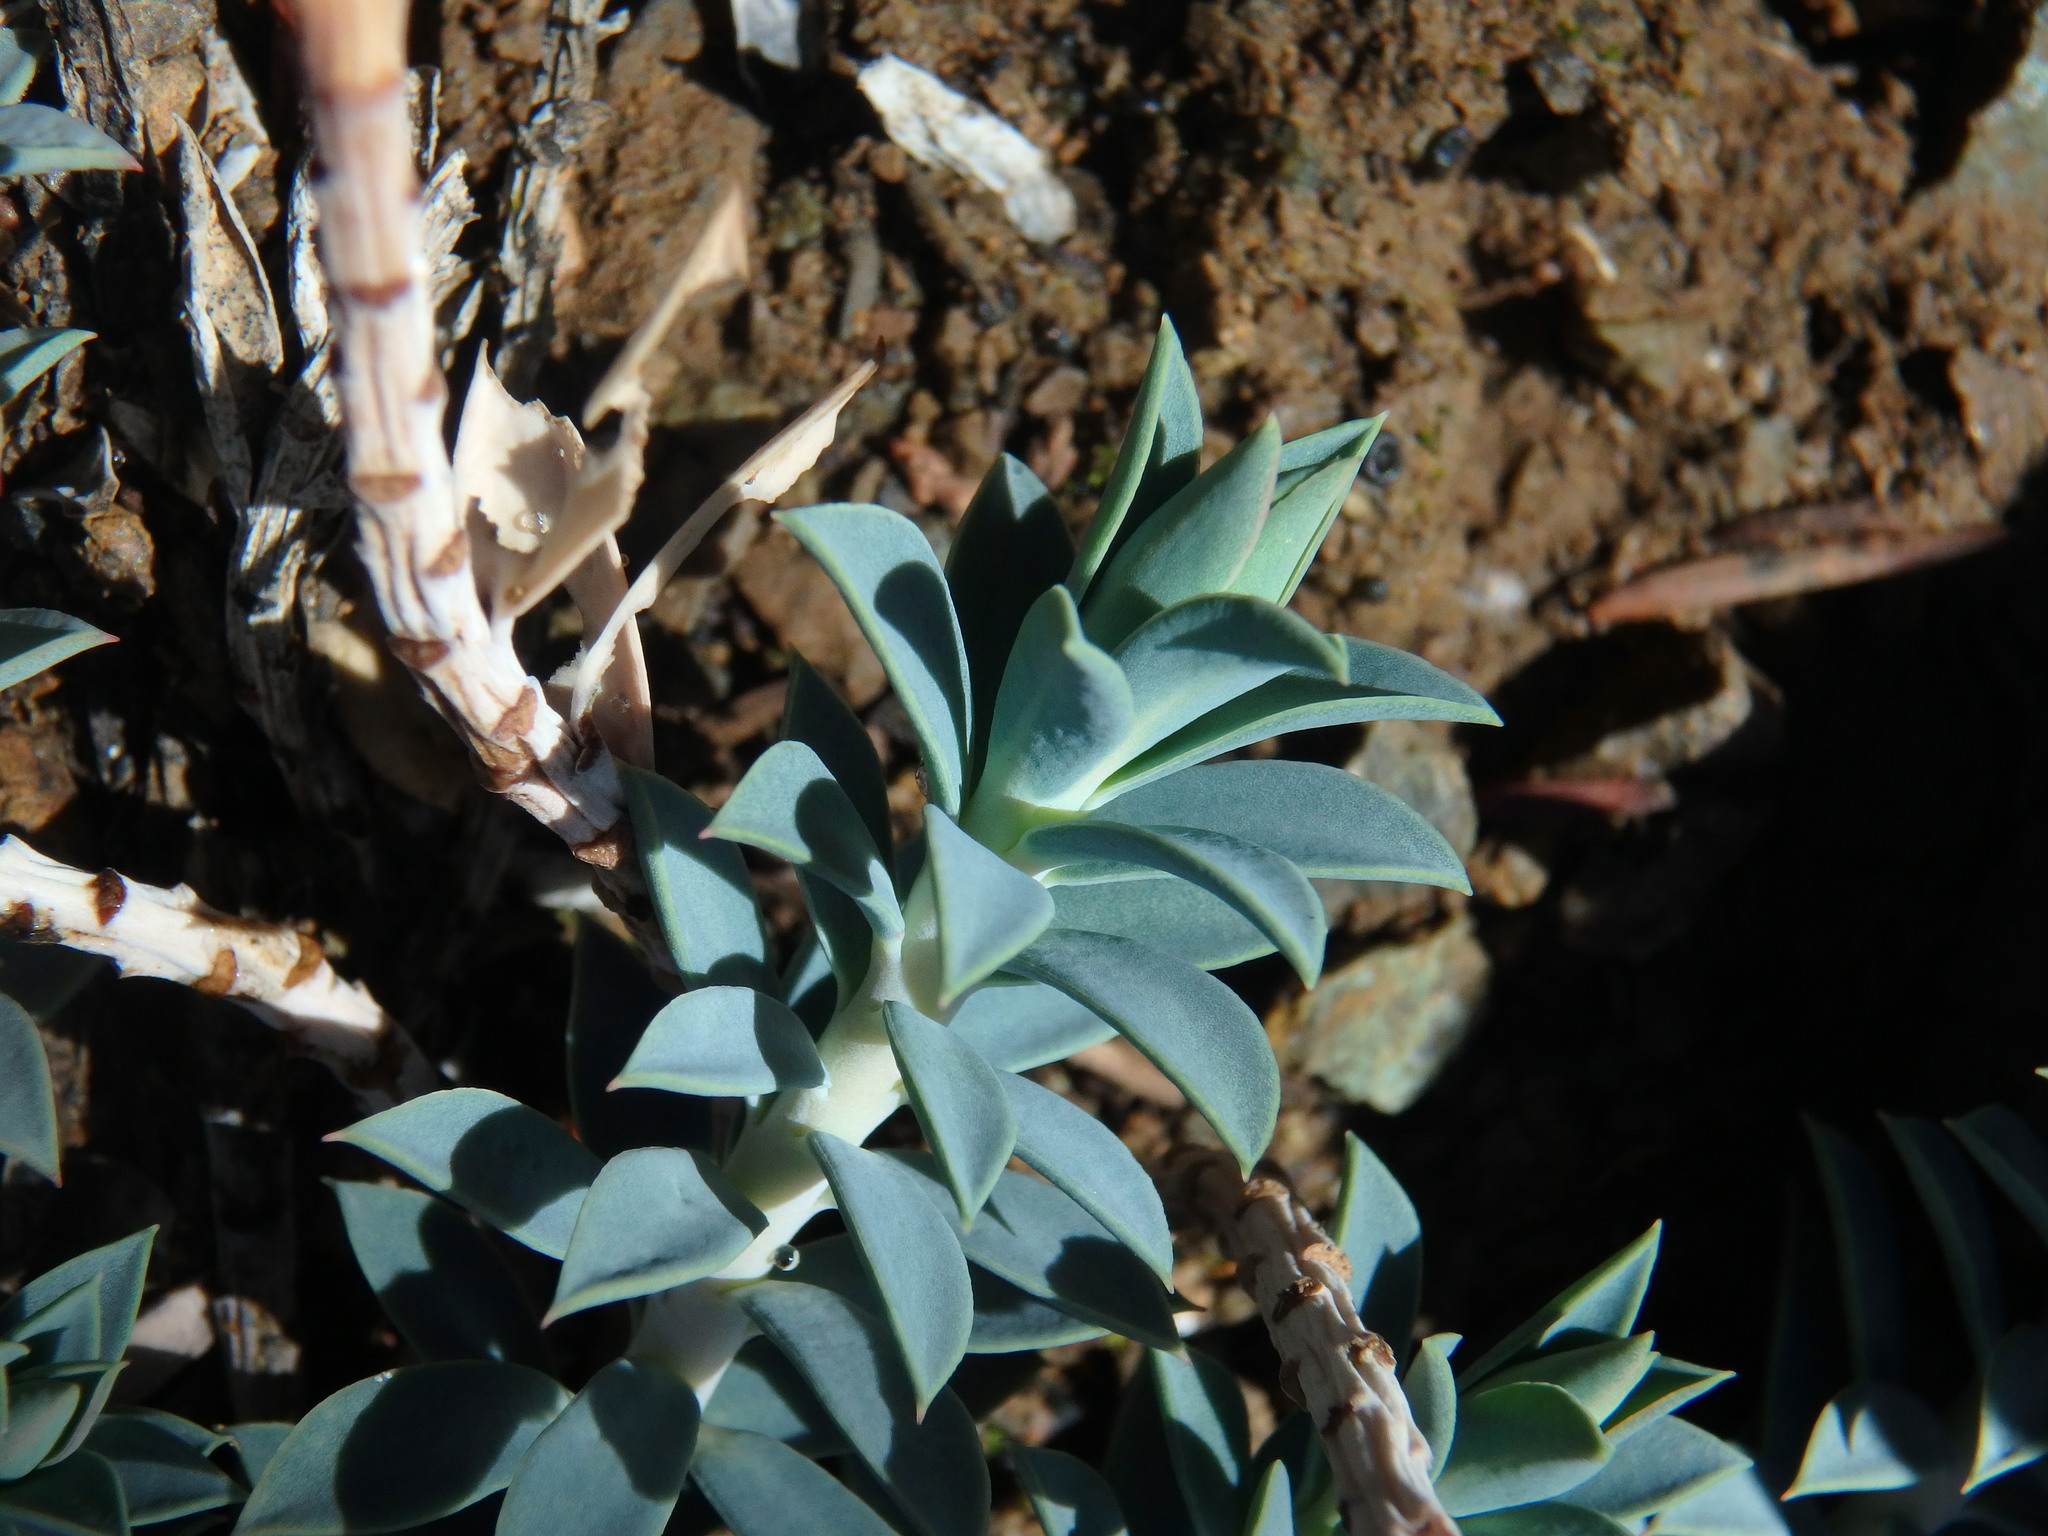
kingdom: Plantae
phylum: Tracheophyta
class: Magnoliopsida
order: Malpighiales
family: Euphorbiaceae
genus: Euphorbia
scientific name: Euphorbia veneris
